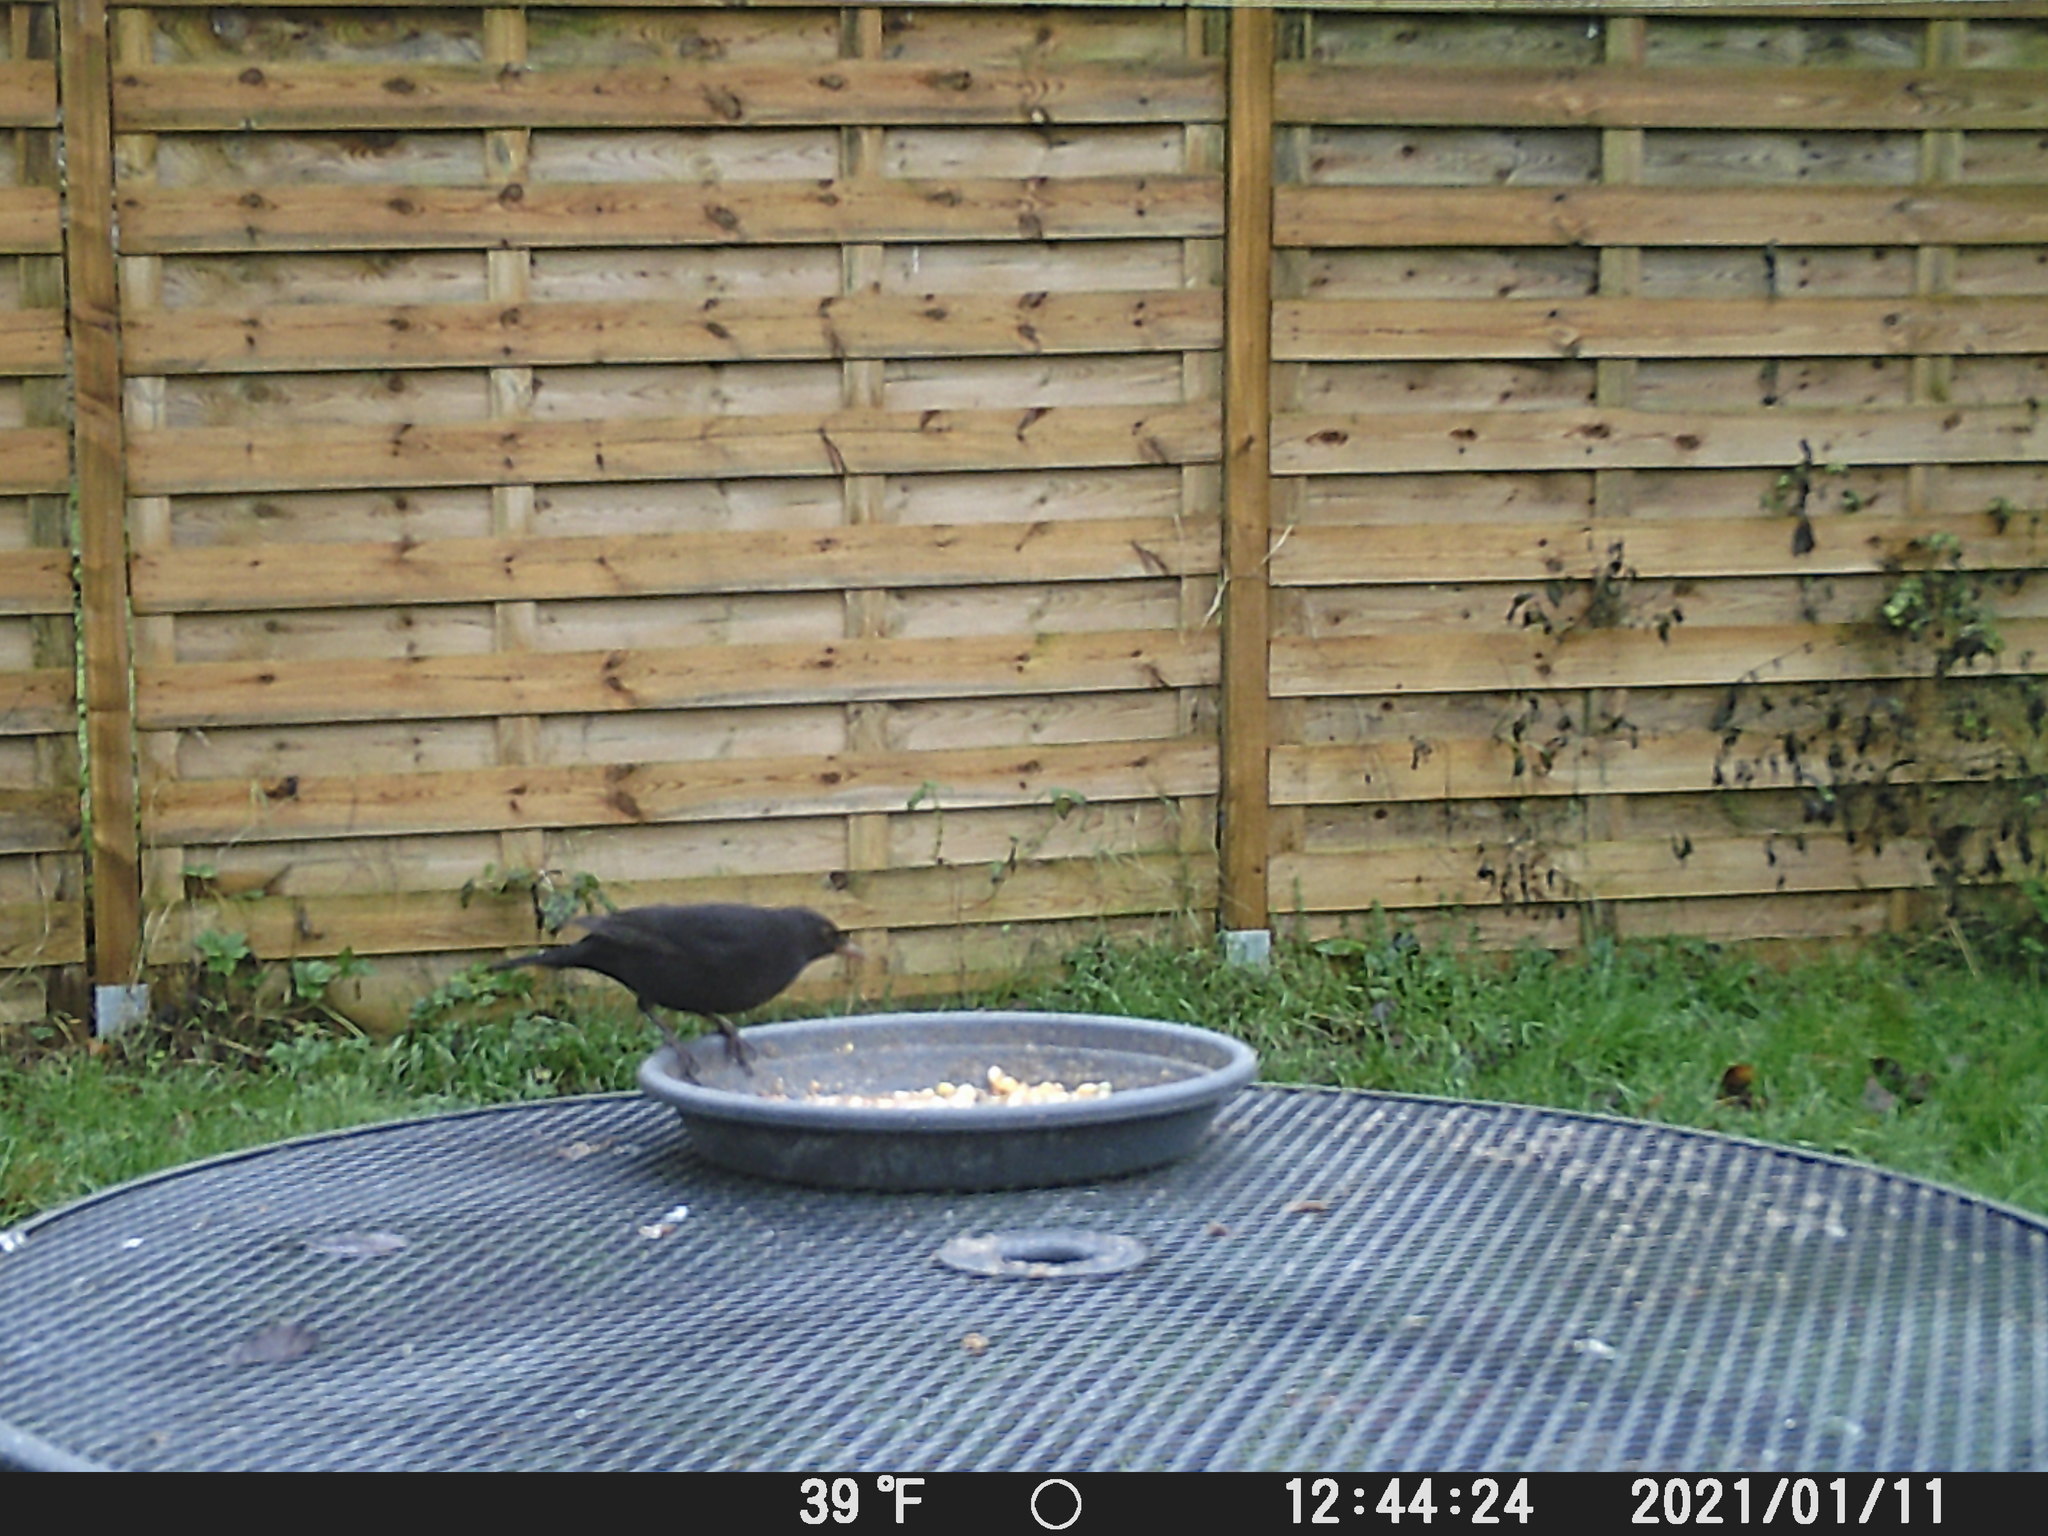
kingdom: Animalia
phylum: Chordata
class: Aves
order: Passeriformes
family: Turdidae
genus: Turdus
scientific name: Turdus merula
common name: Common blackbird
